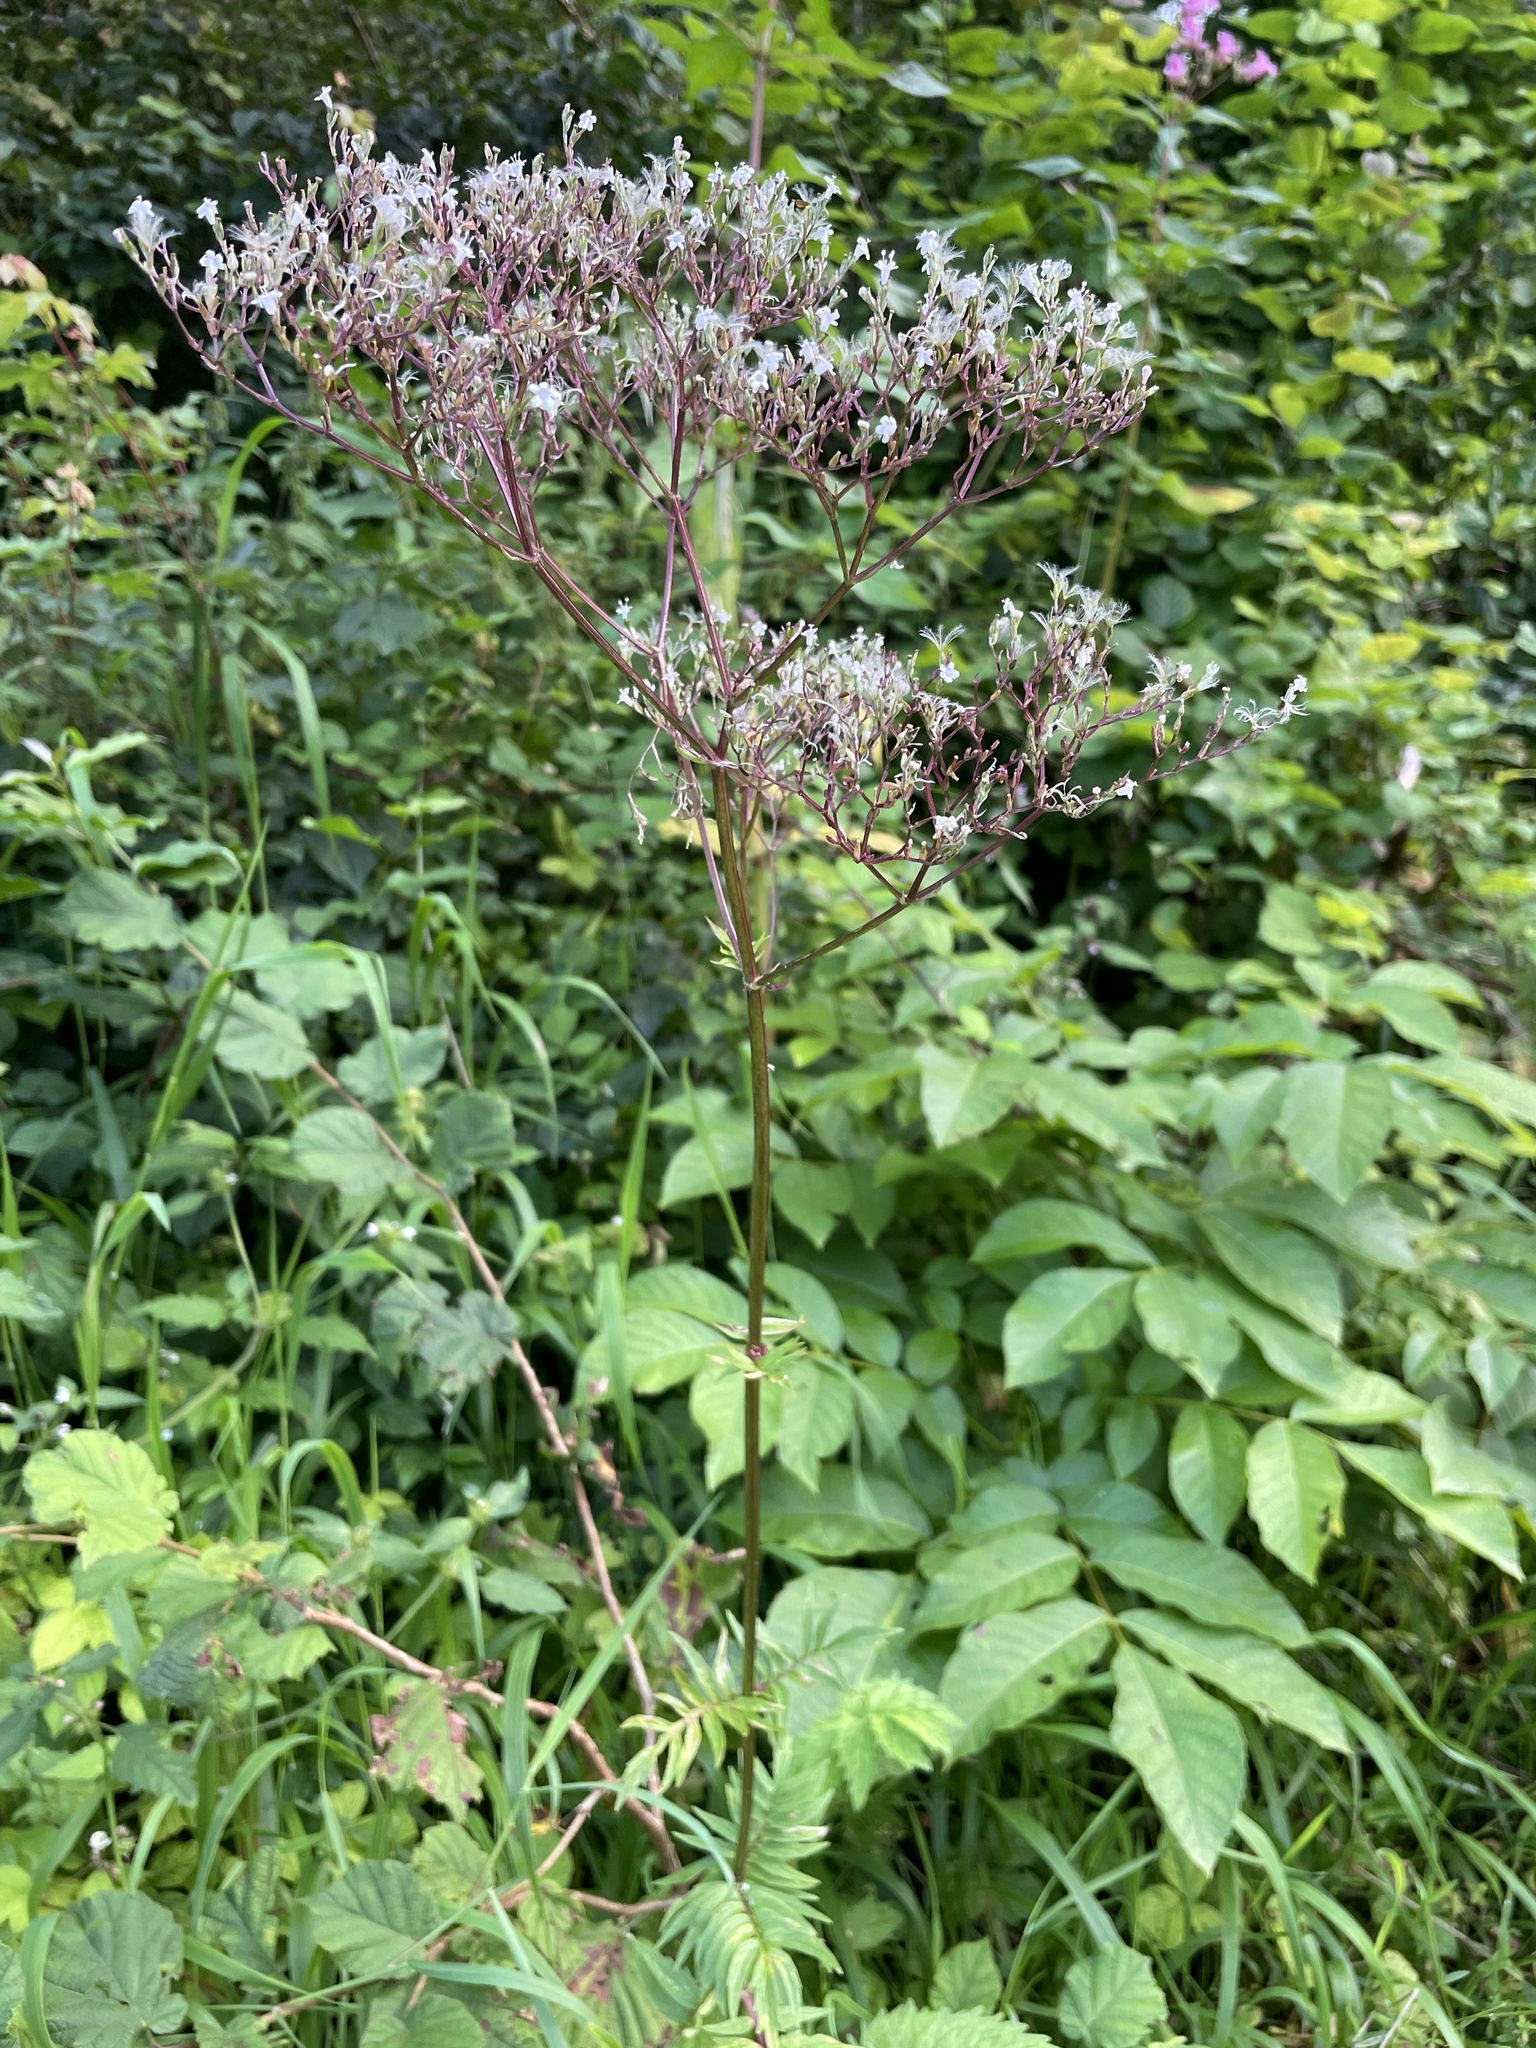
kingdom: Plantae
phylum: Tracheophyta
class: Magnoliopsida
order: Dipsacales
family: Caprifoliaceae
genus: Valeriana
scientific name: Valeriana officinalis
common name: Common valerian
